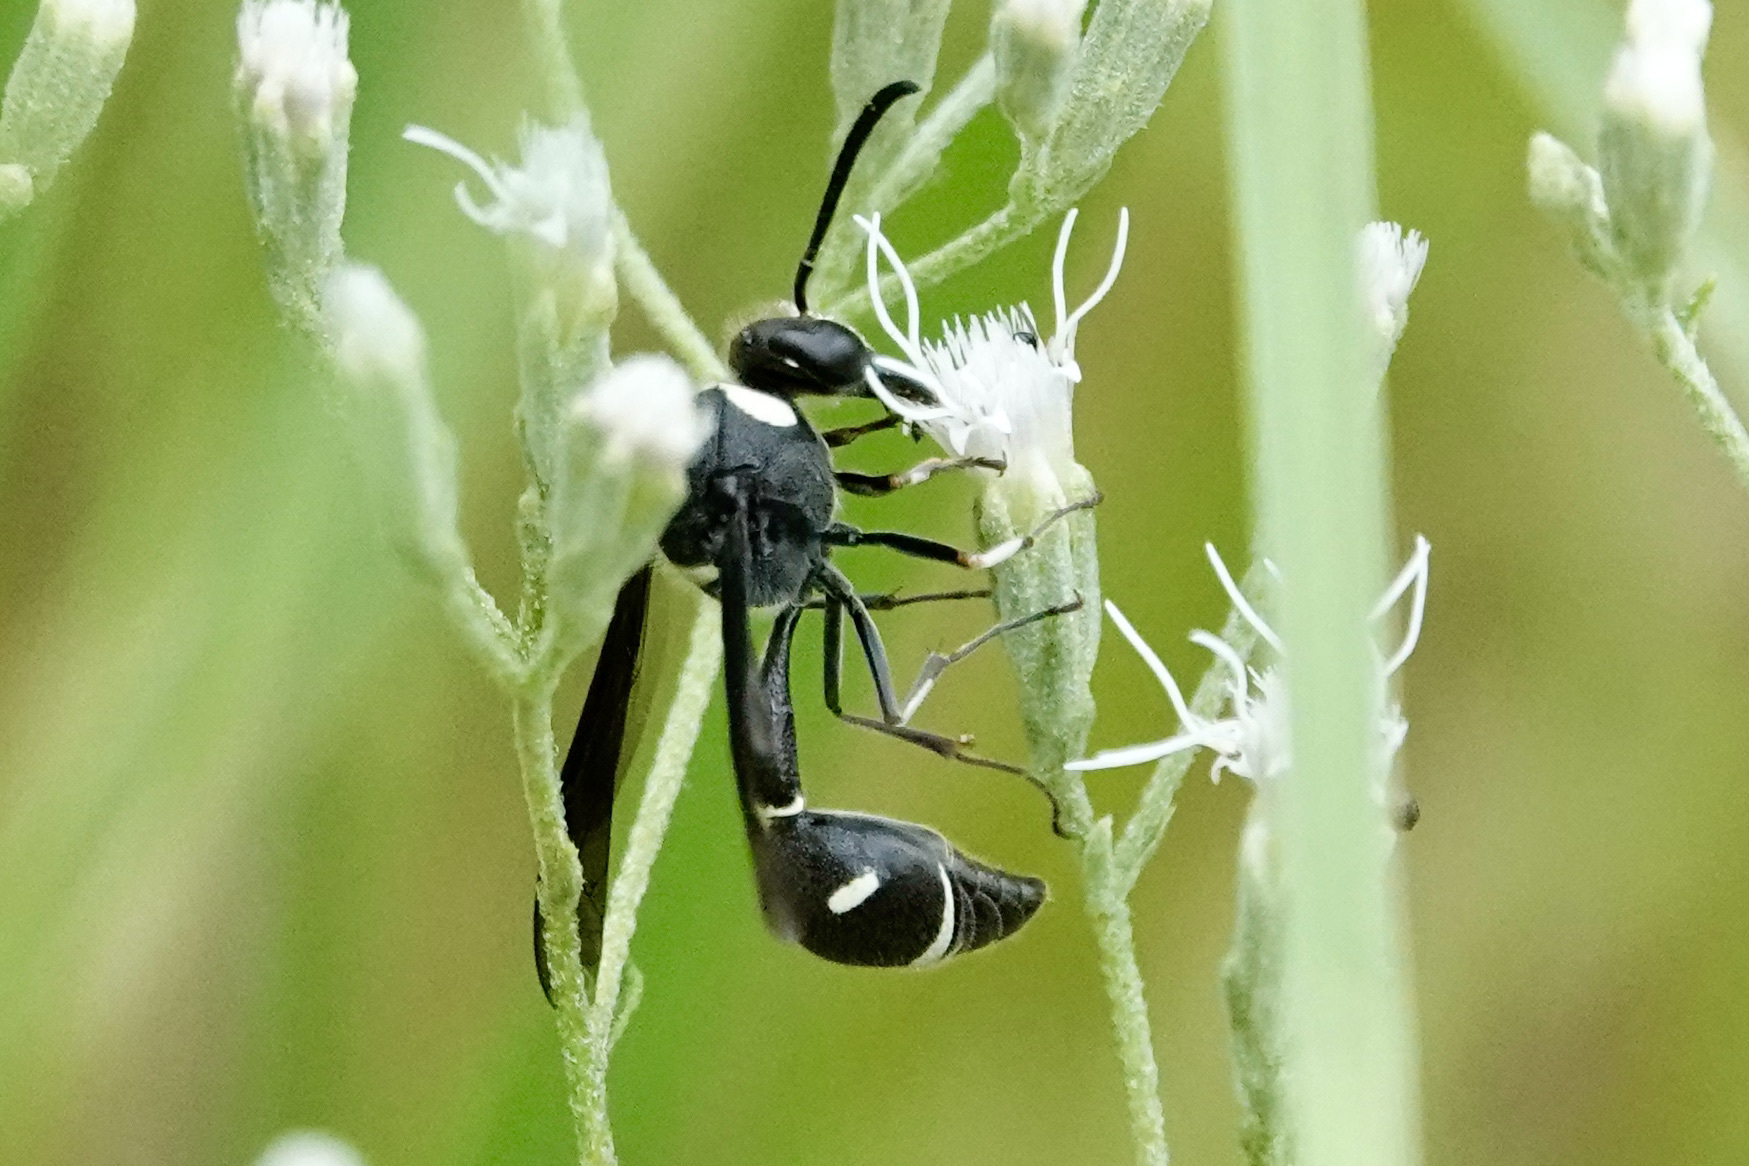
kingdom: Animalia
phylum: Arthropoda
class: Insecta
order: Hymenoptera
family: Vespidae
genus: Eumenes
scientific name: Eumenes fraternus
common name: Fraternal potter wasp
